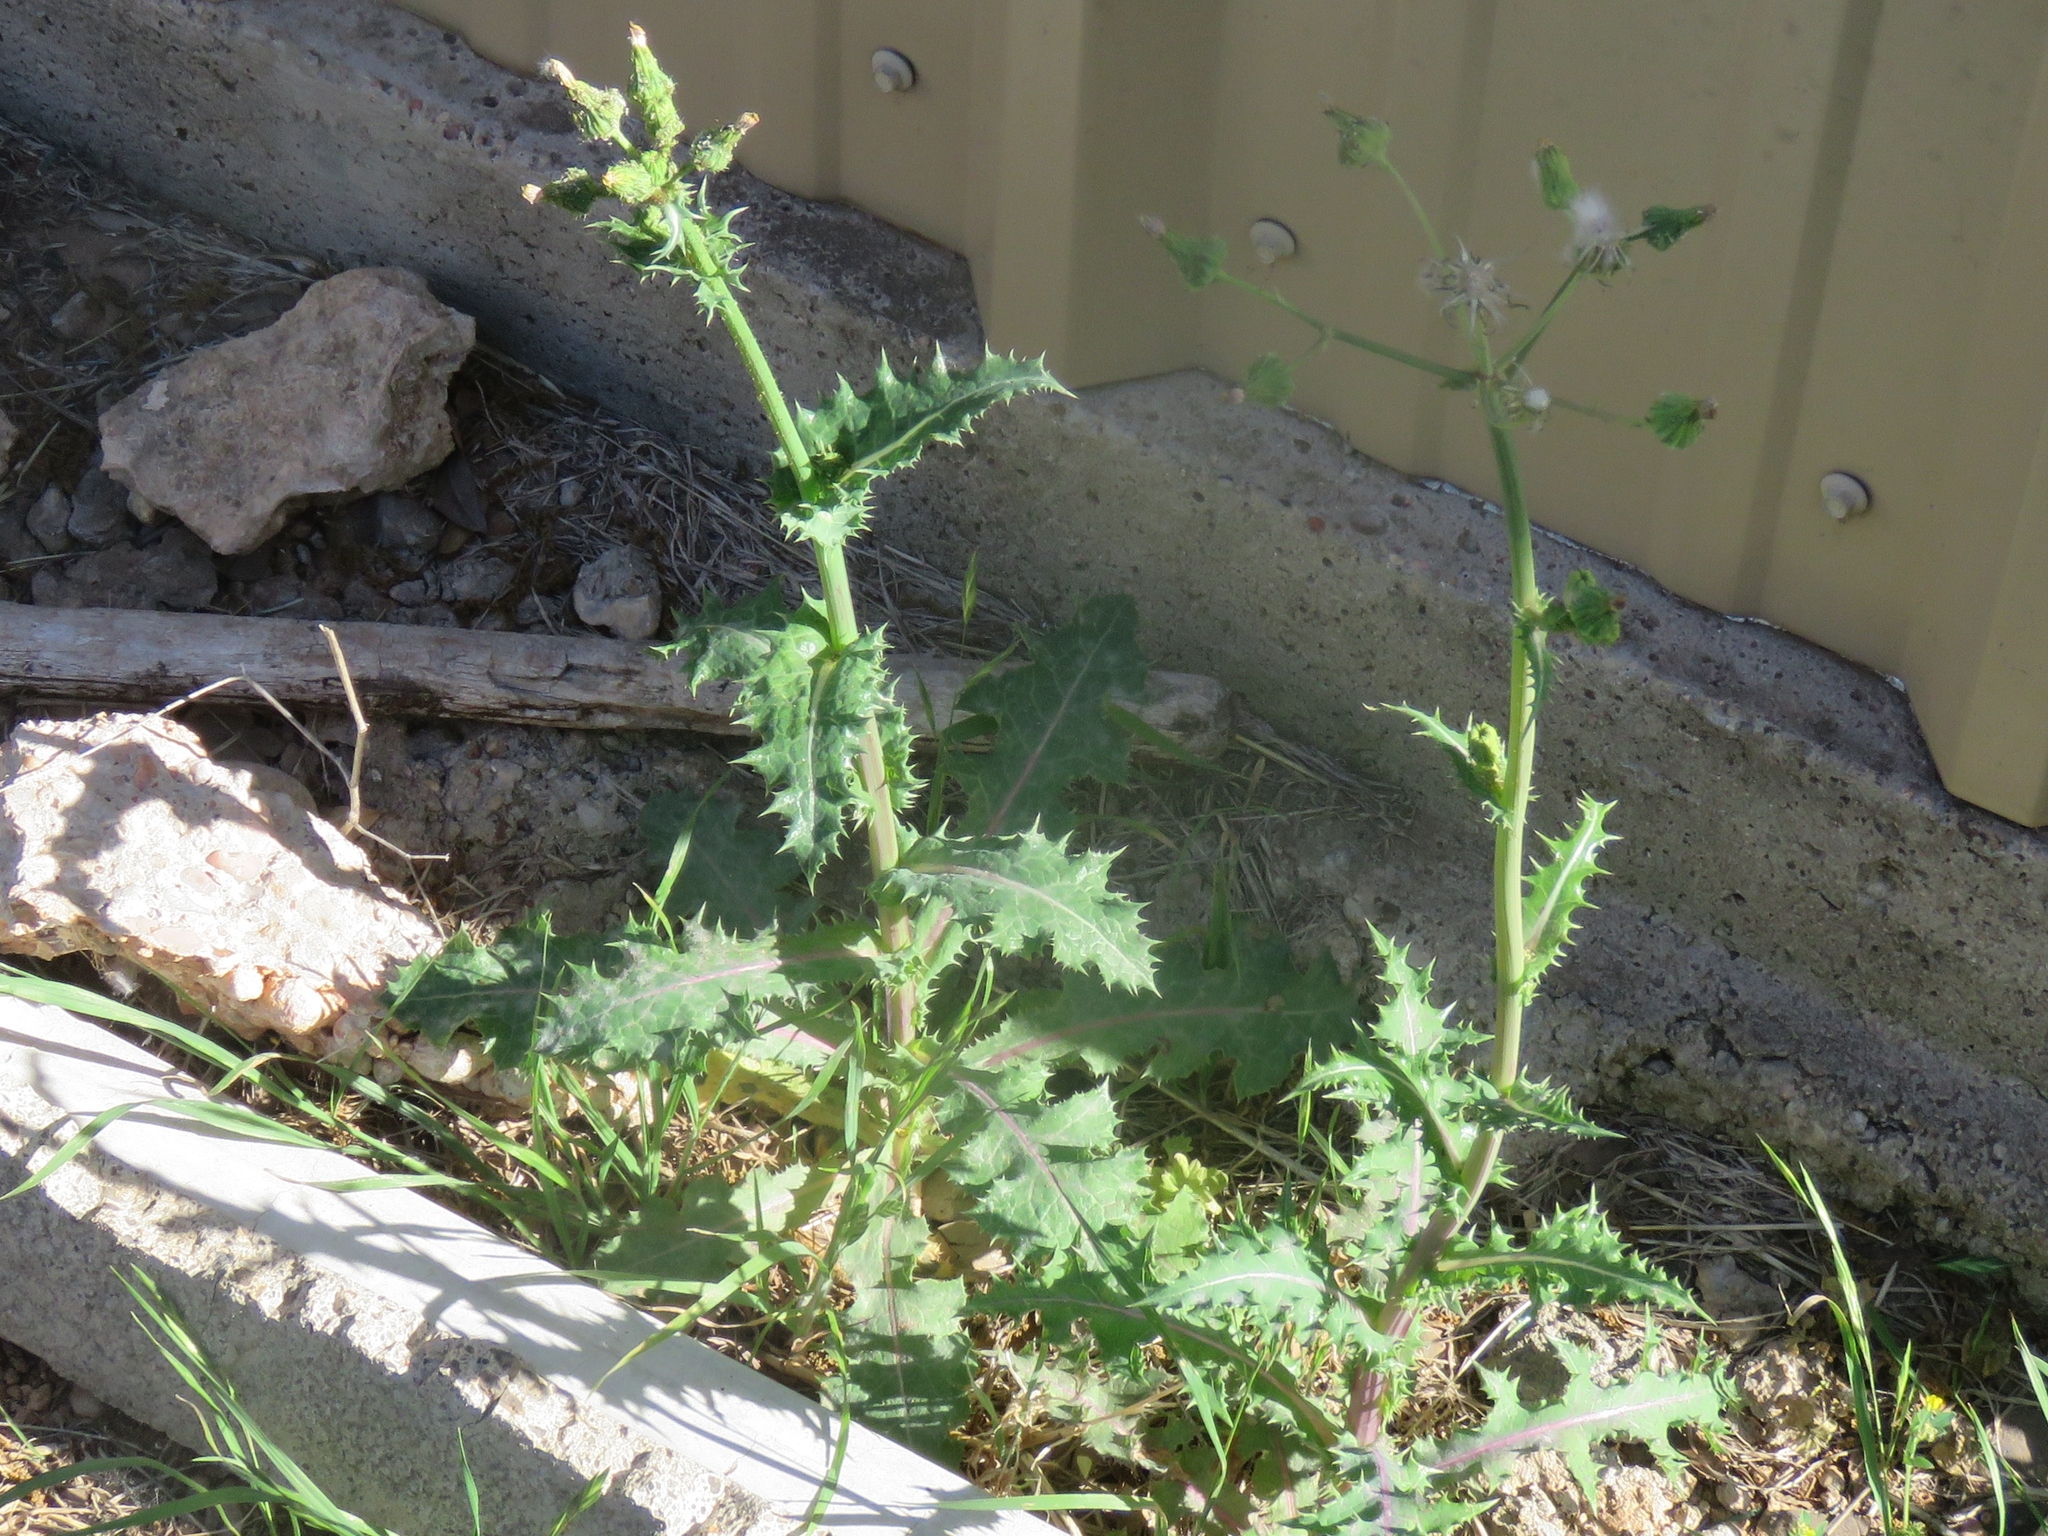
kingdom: Plantae
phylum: Tracheophyta
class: Magnoliopsida
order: Asterales
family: Asteraceae
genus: Sonchus
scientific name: Sonchus asper
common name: Prickly sow-thistle
